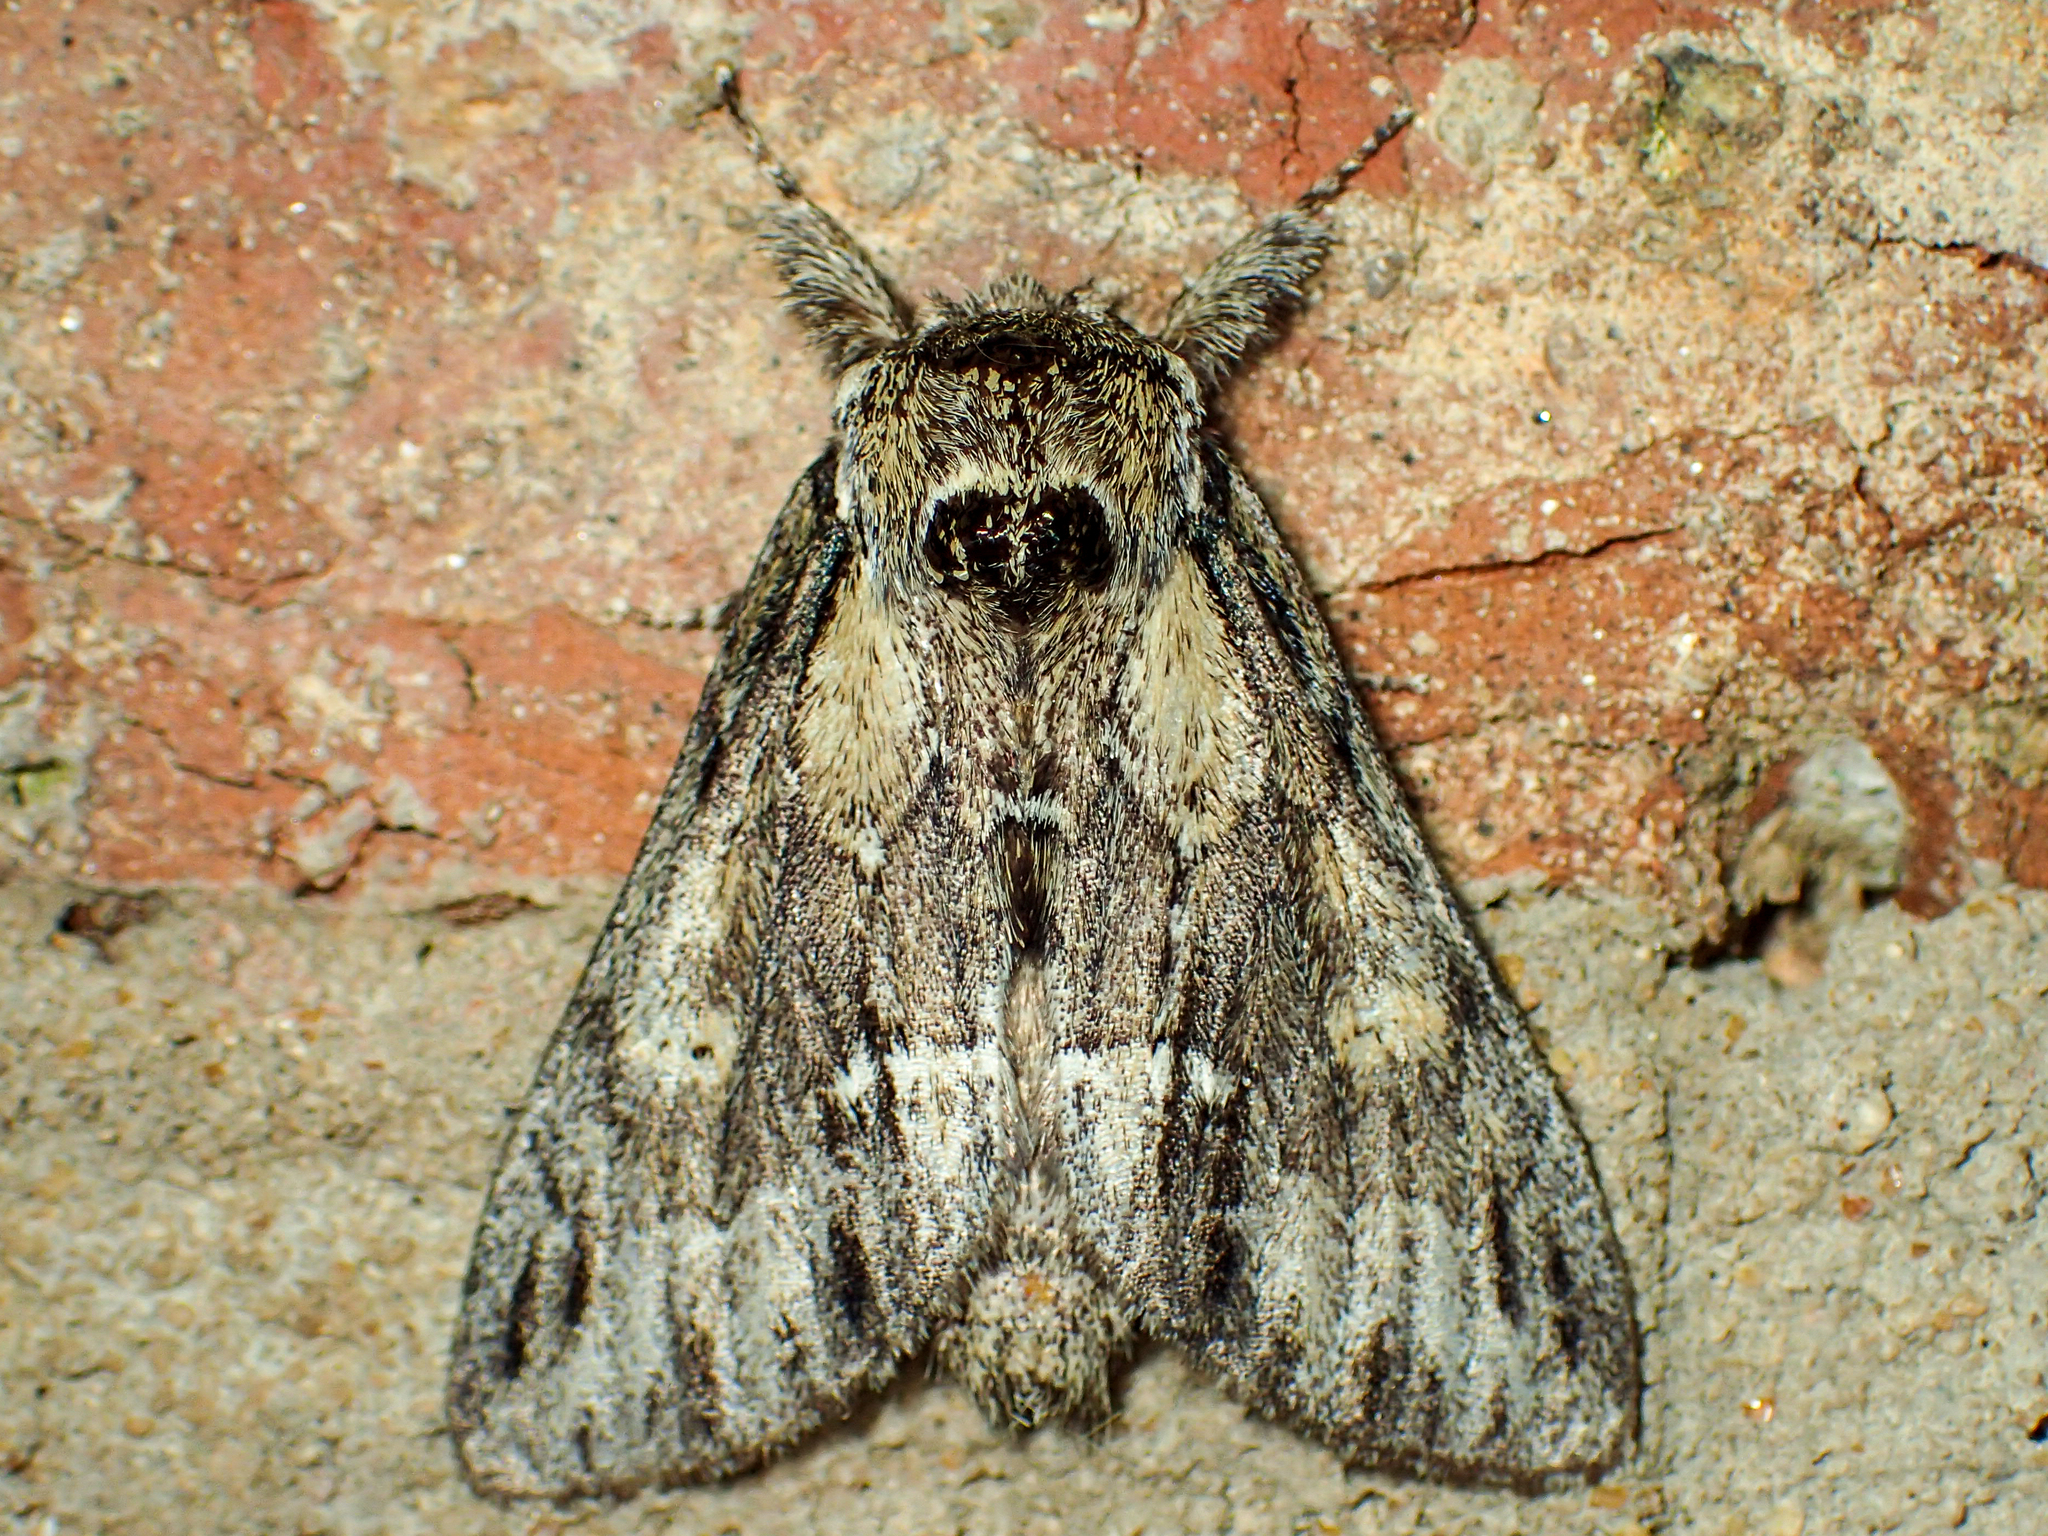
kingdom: Animalia
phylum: Arthropoda
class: Insecta
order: Lepidoptera
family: Notodontidae
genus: Paraeschra
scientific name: Paraeschra georgica
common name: Georgian prominent
